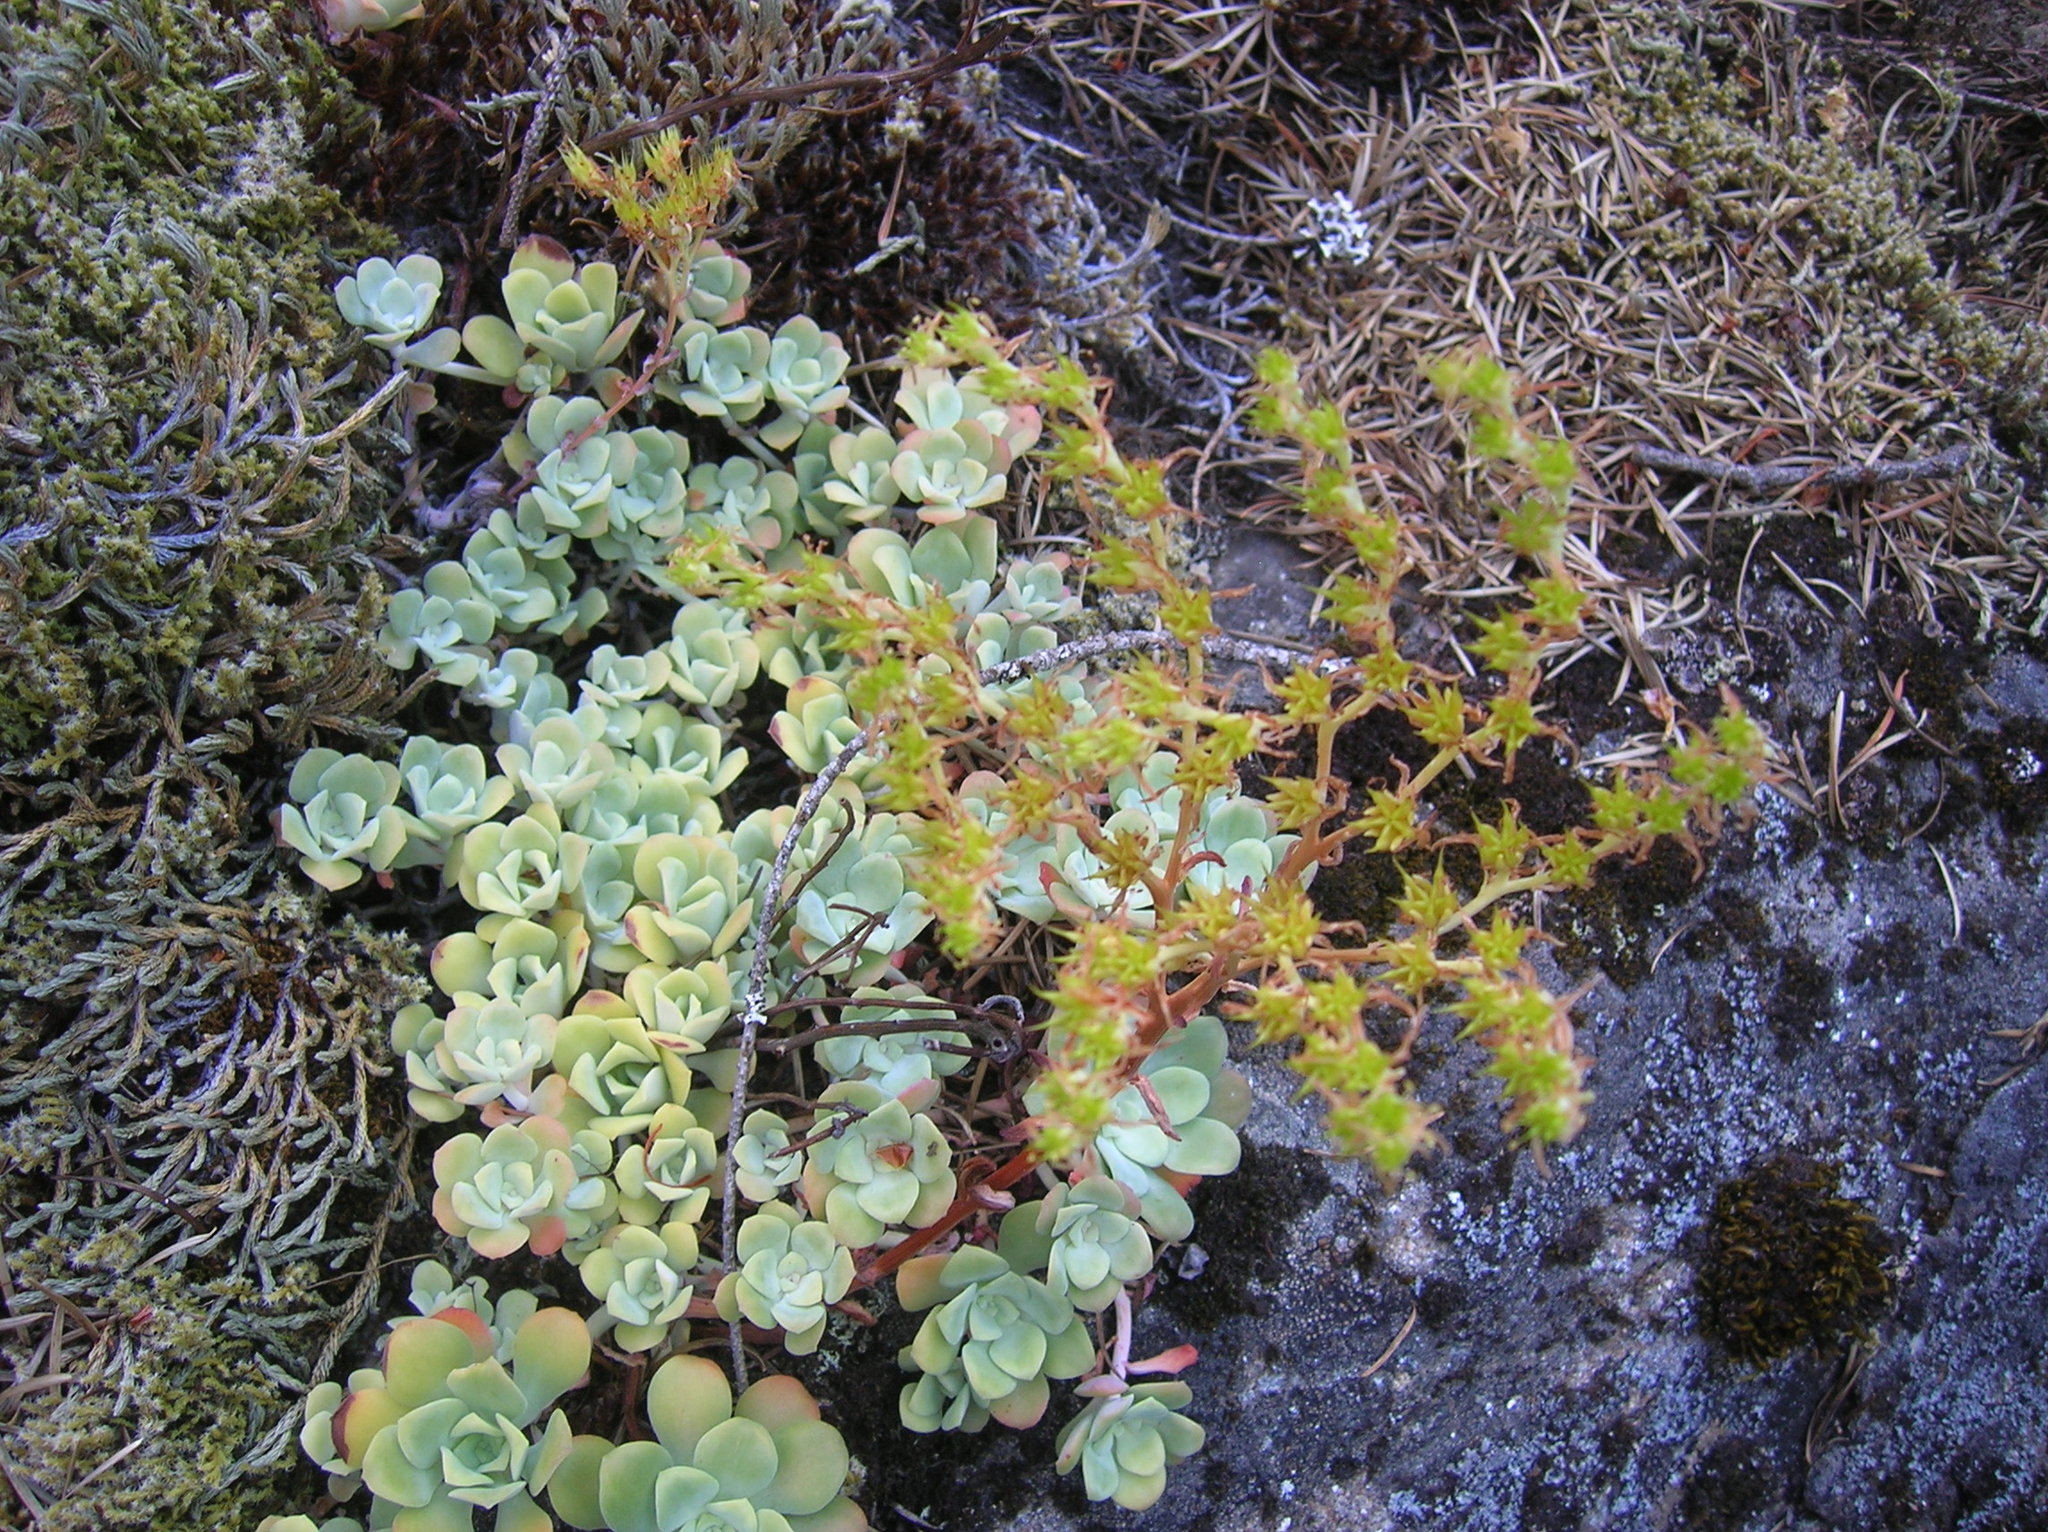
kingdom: Plantae
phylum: Tracheophyta
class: Magnoliopsida
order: Saxifragales
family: Crassulaceae
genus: Sedum
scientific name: Sedum spathulifolium
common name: Colorado stonecrop
